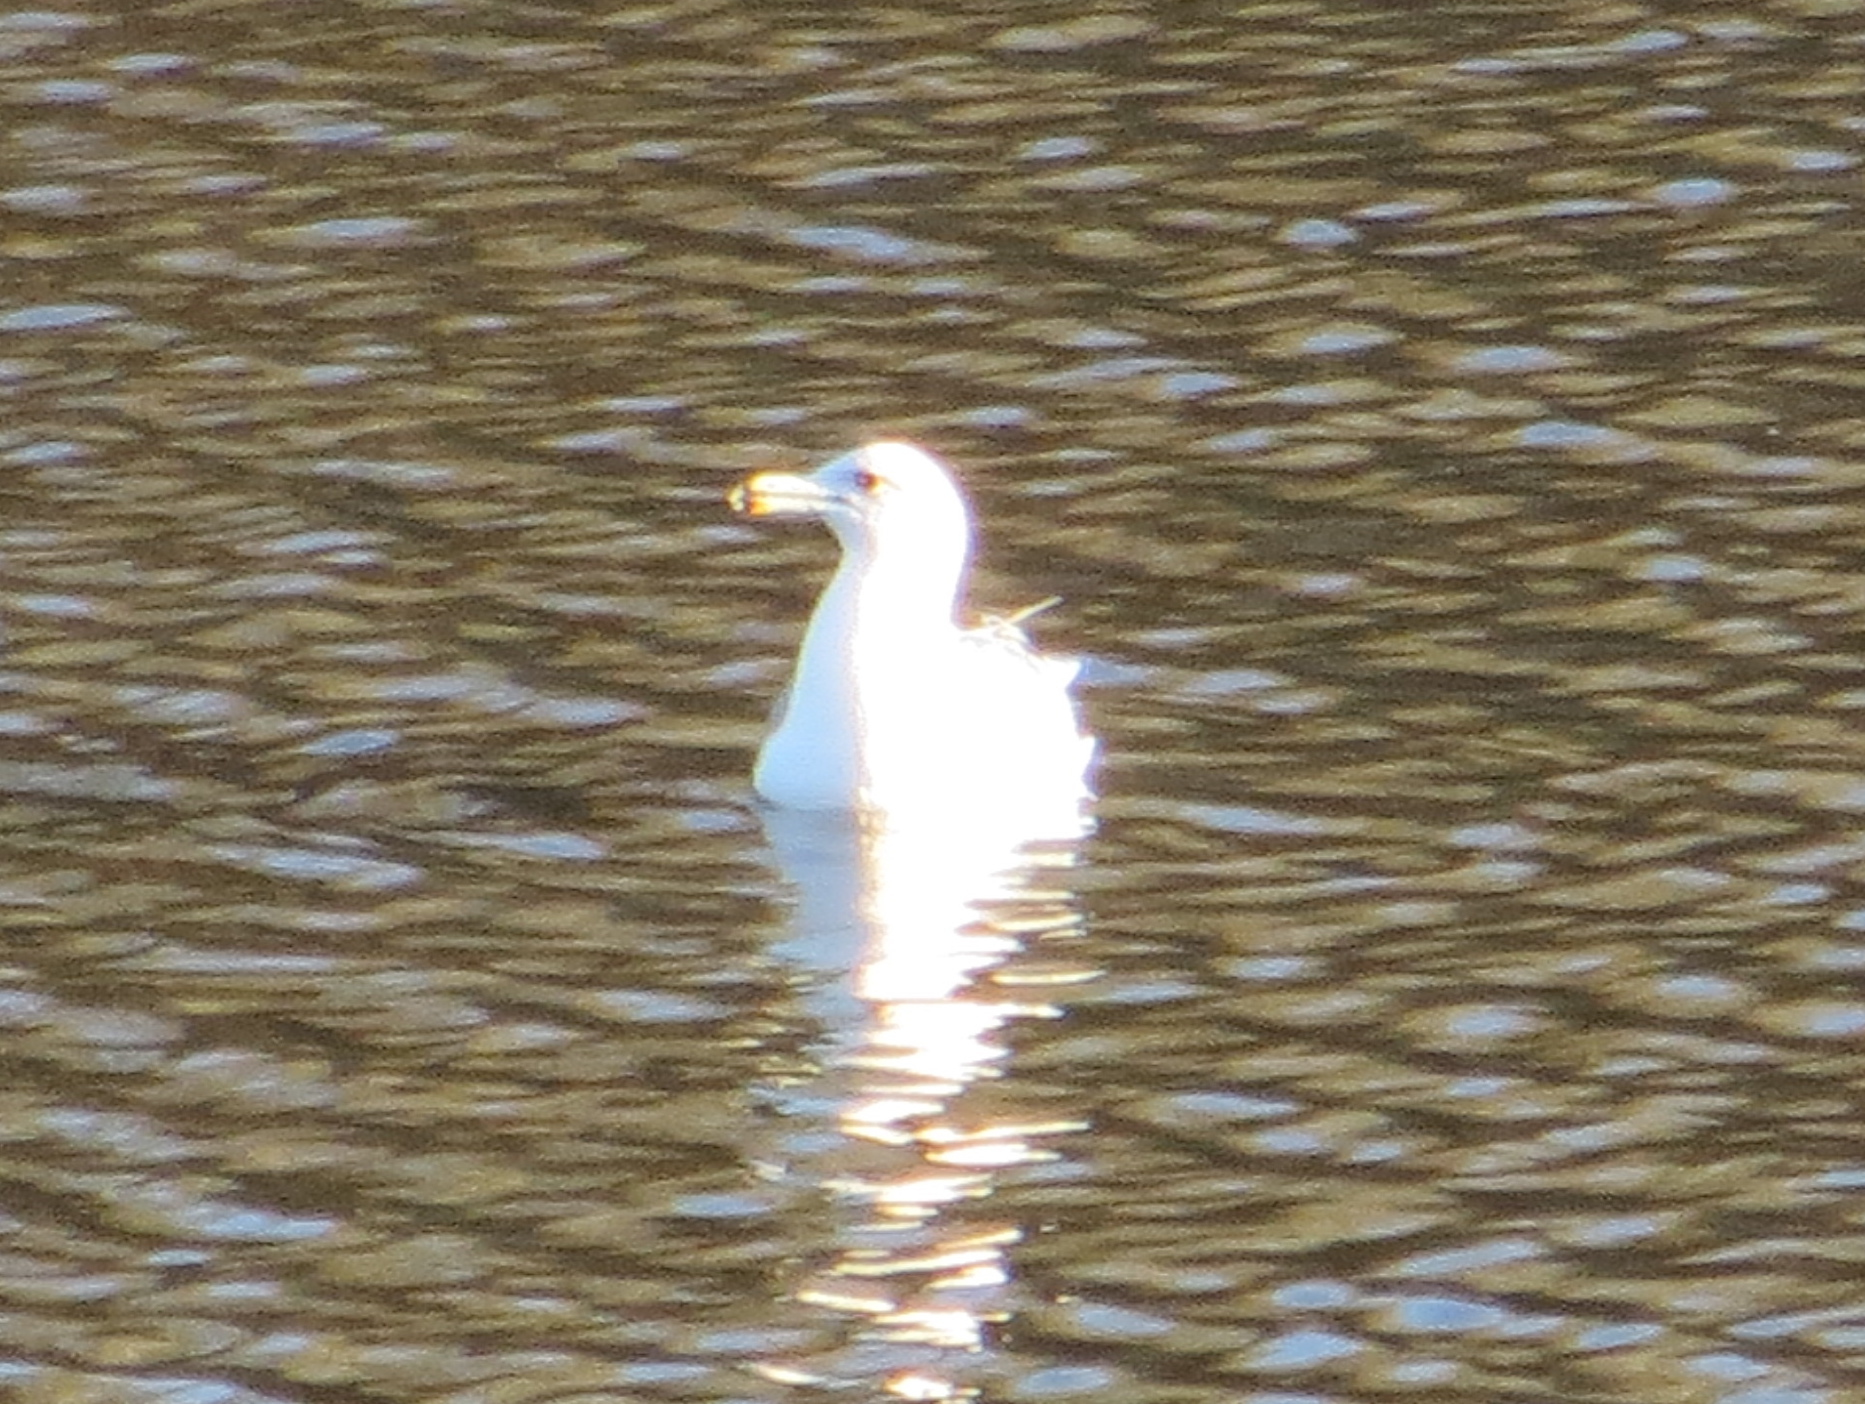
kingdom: Animalia
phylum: Chordata
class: Aves
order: Charadriiformes
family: Laridae
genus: Larus
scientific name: Larus californicus
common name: California gull
